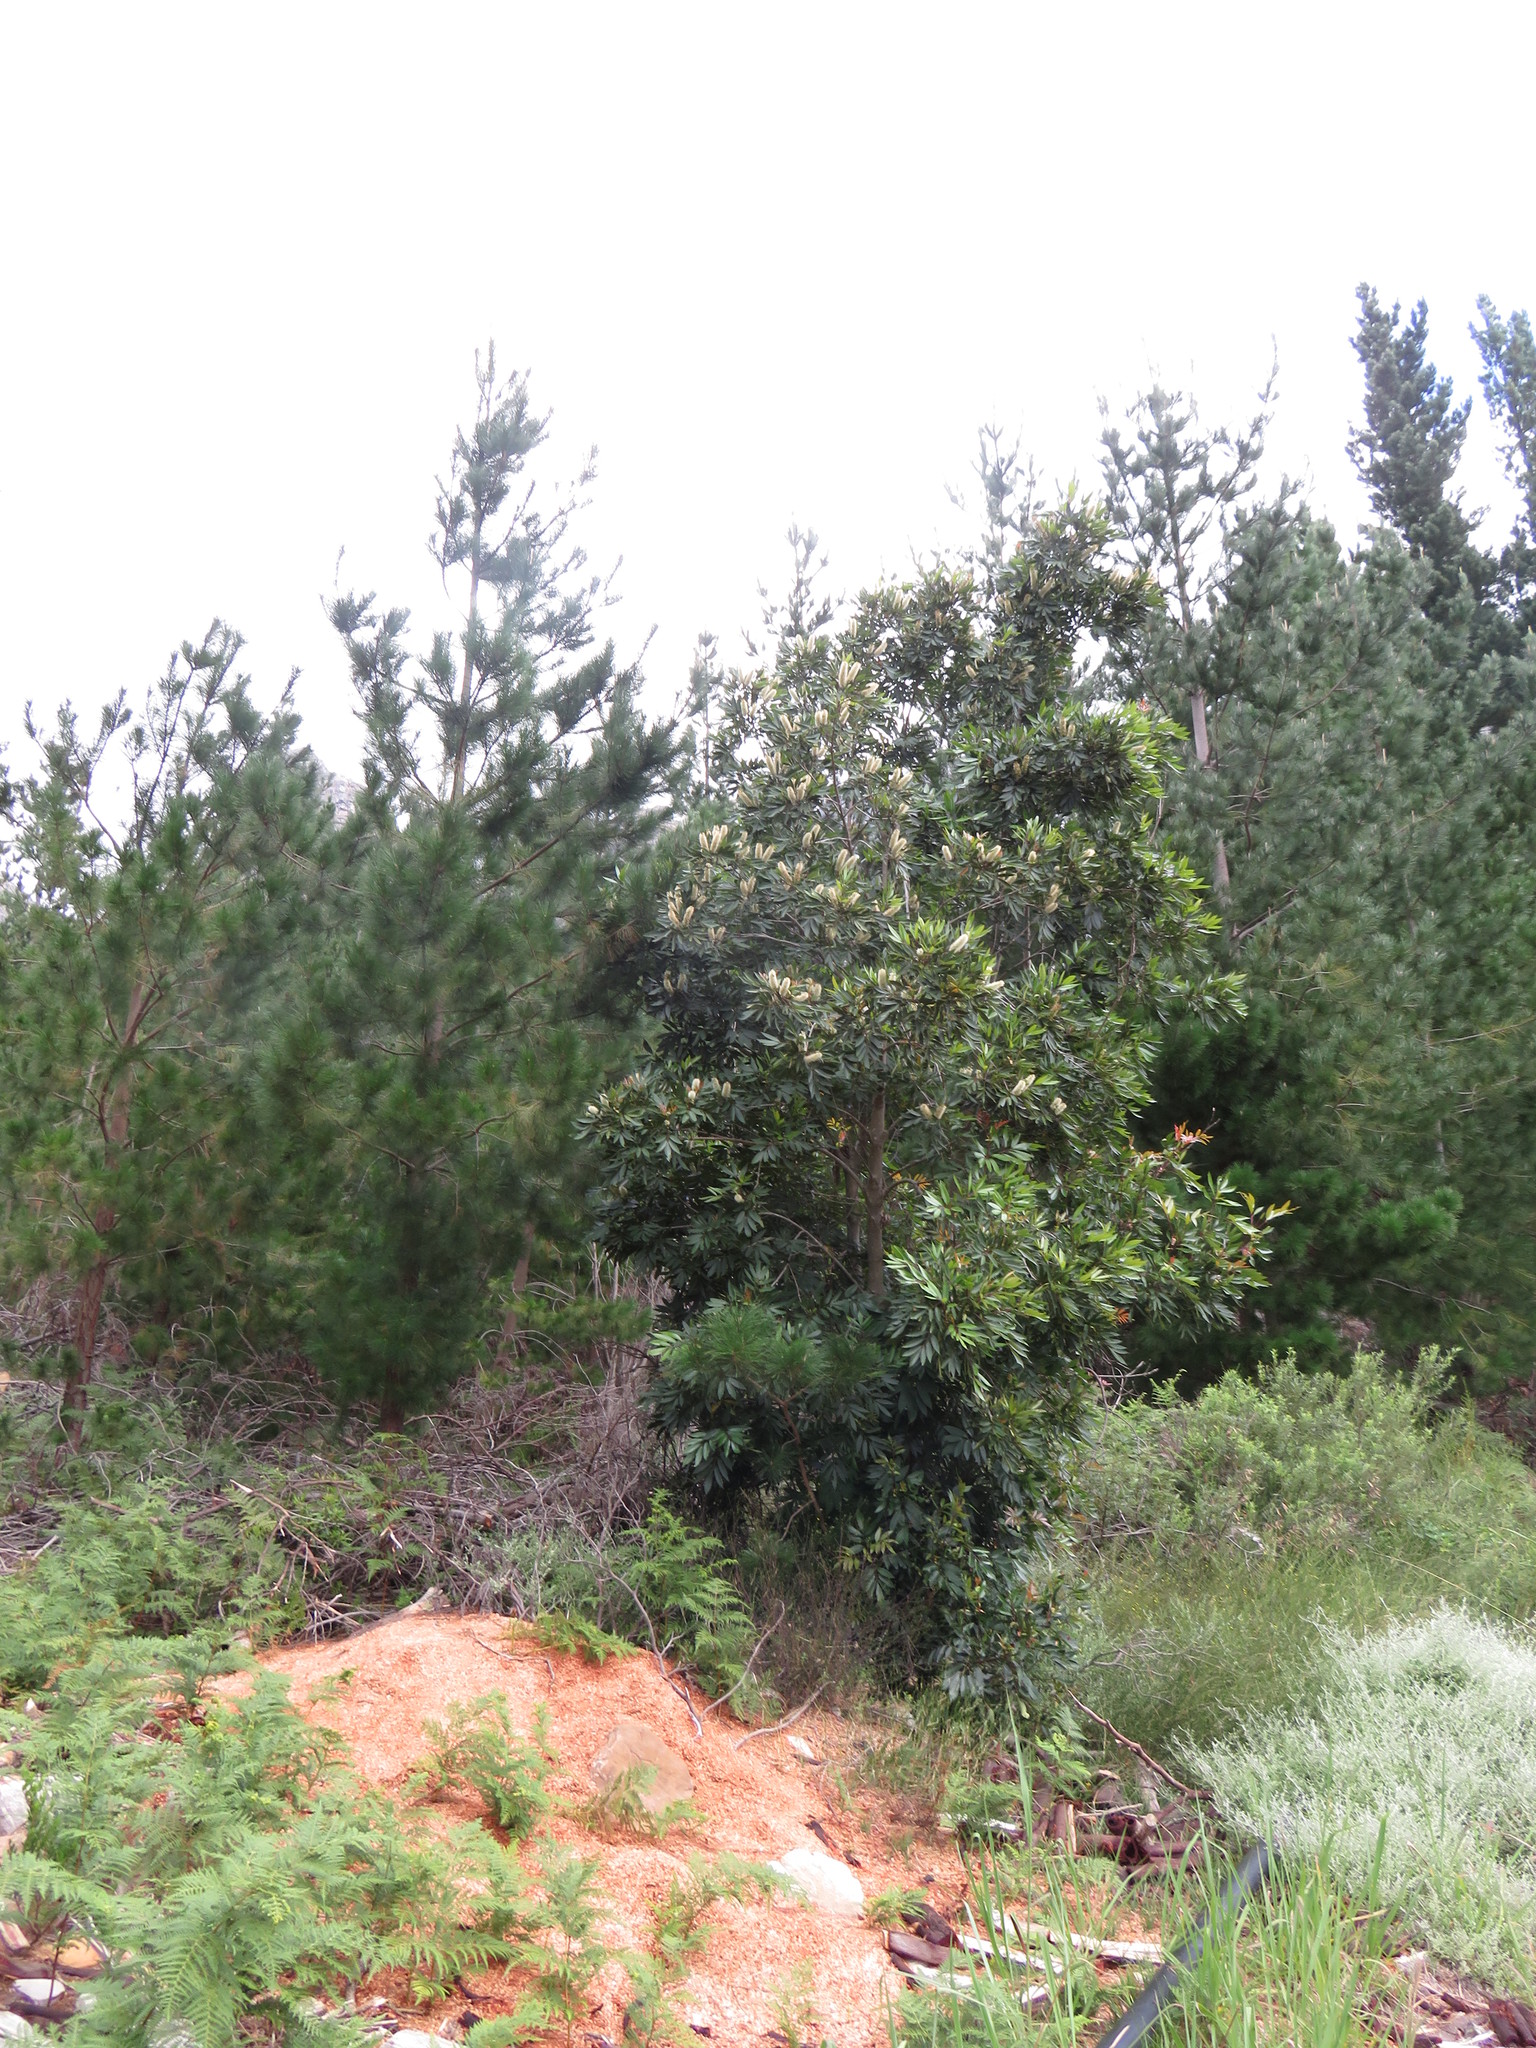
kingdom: Plantae
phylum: Tracheophyta
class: Magnoliopsida
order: Oxalidales
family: Cunoniaceae
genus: Cunonia
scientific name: Cunonia capensis
